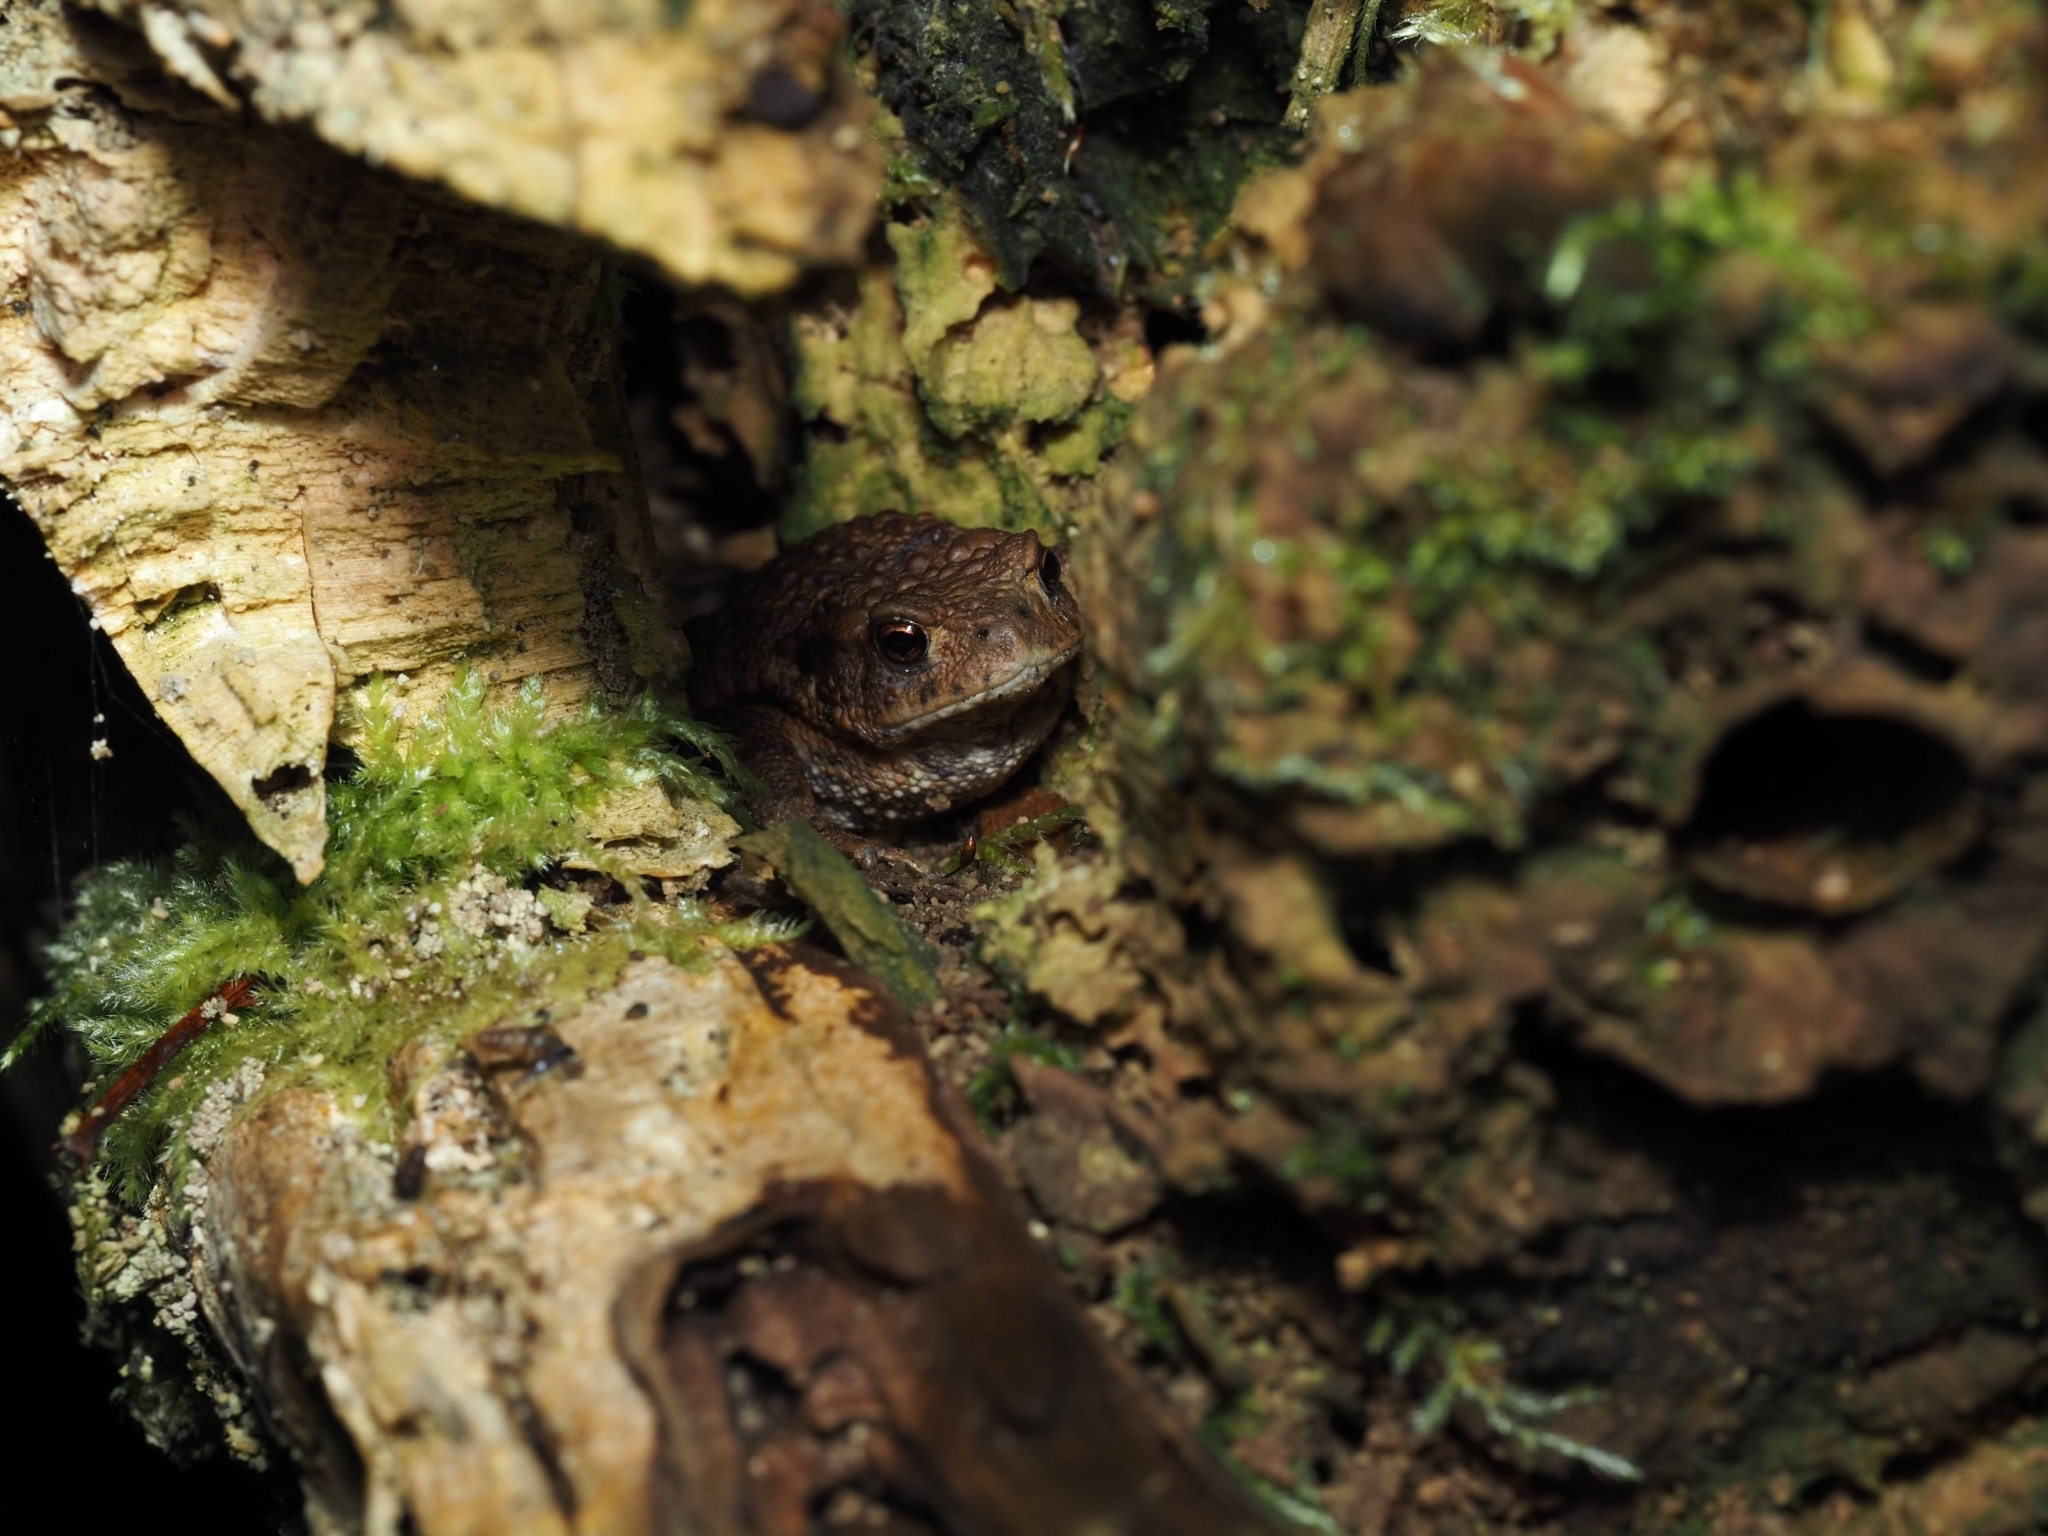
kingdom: Animalia
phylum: Chordata
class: Amphibia
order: Anura
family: Bufonidae
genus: Bufo
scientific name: Bufo bufo
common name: Common toad
